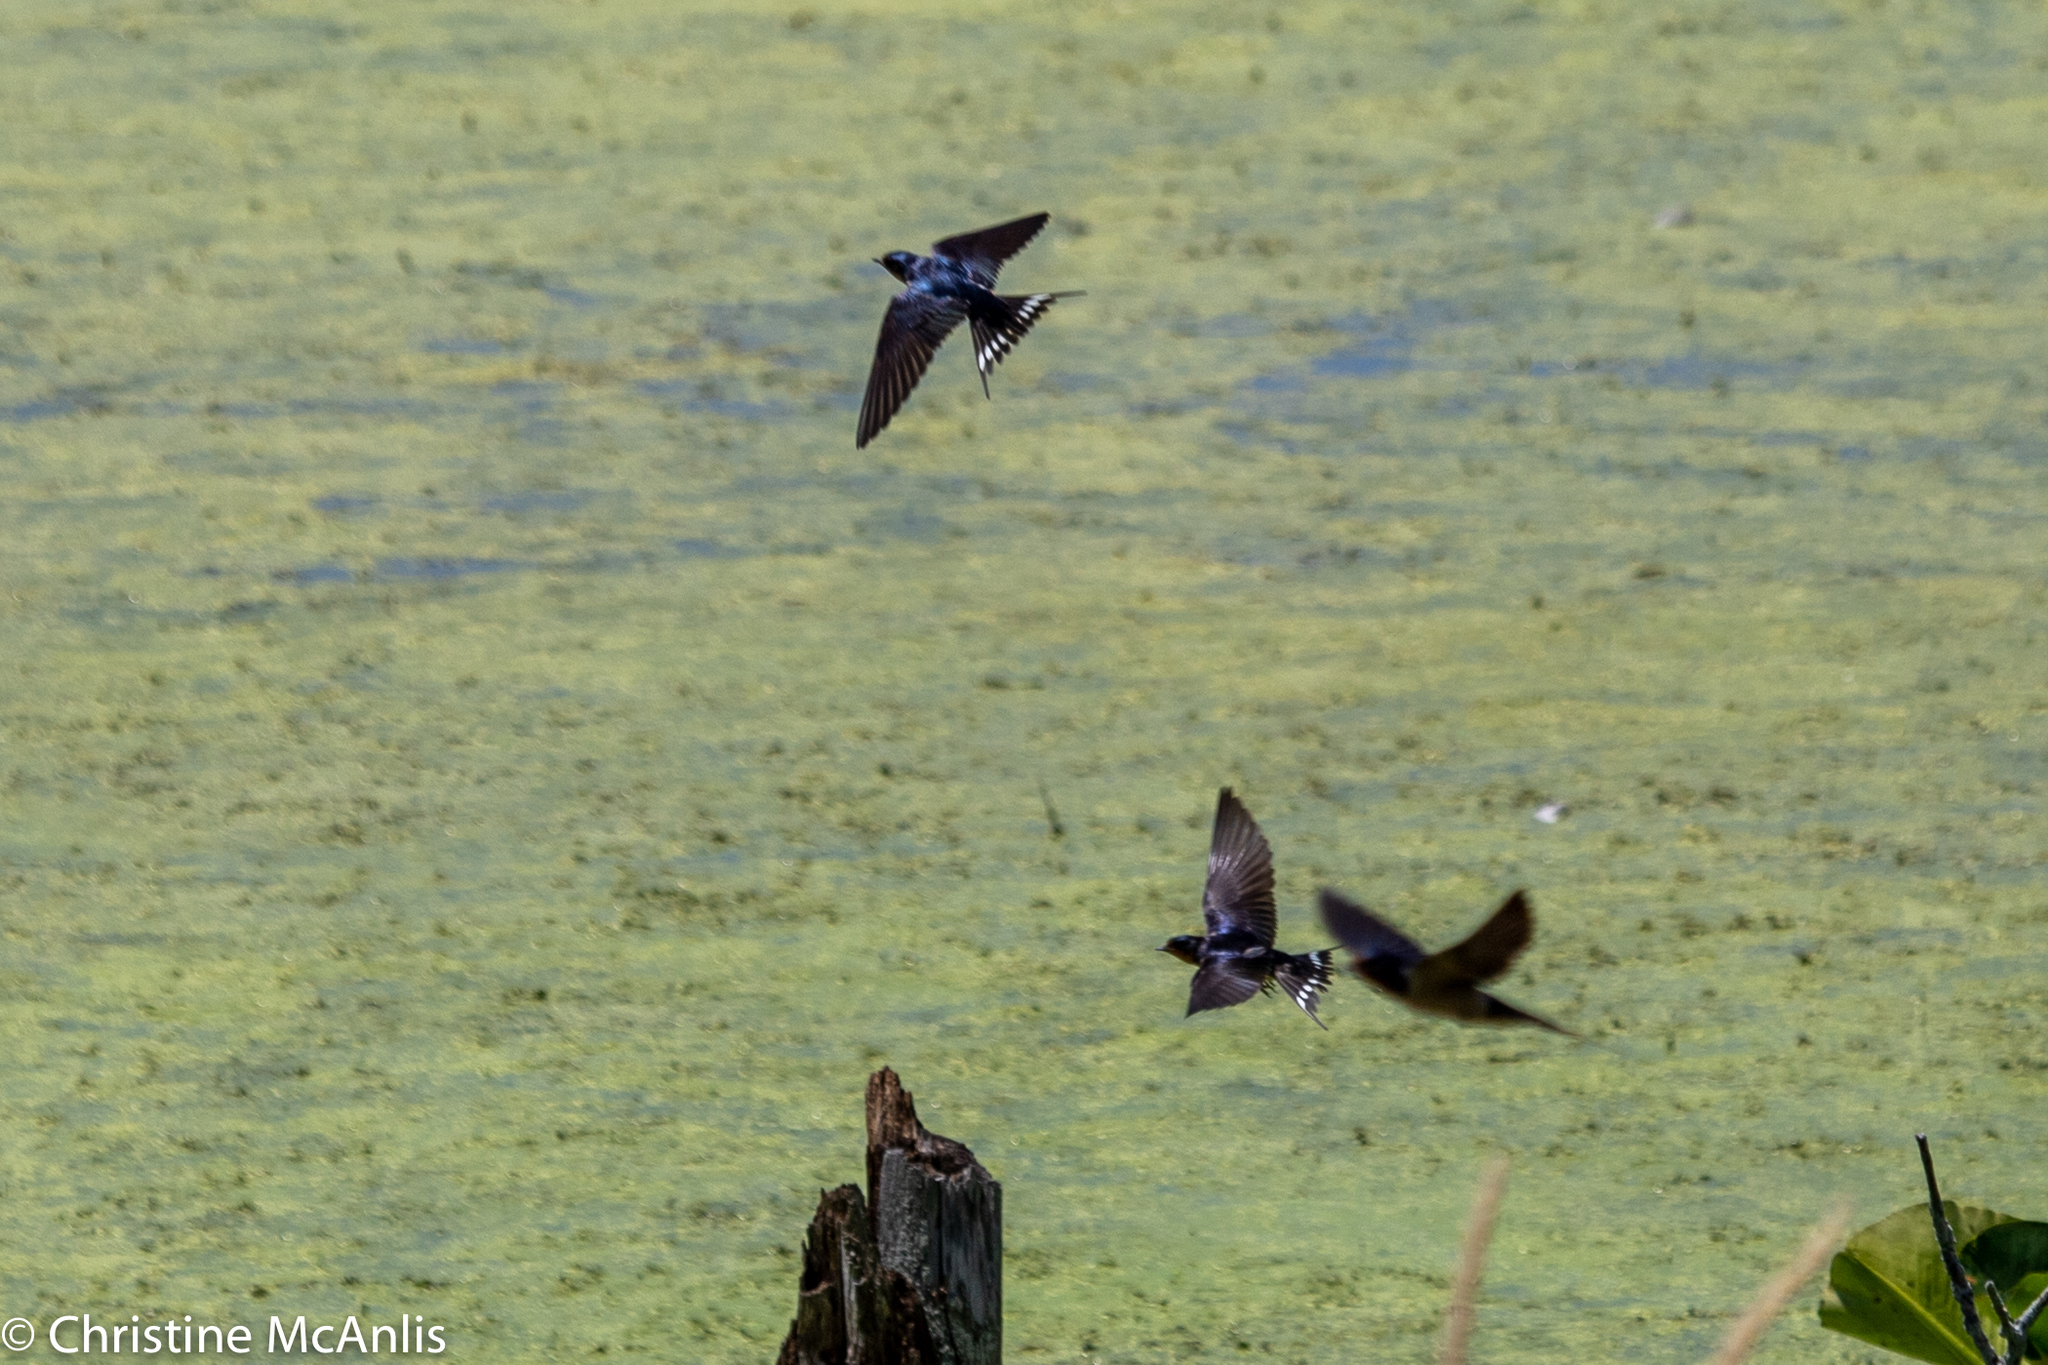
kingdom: Animalia
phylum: Chordata
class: Aves
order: Passeriformes
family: Hirundinidae
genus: Hirundo
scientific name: Hirundo rustica
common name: Barn swallow
